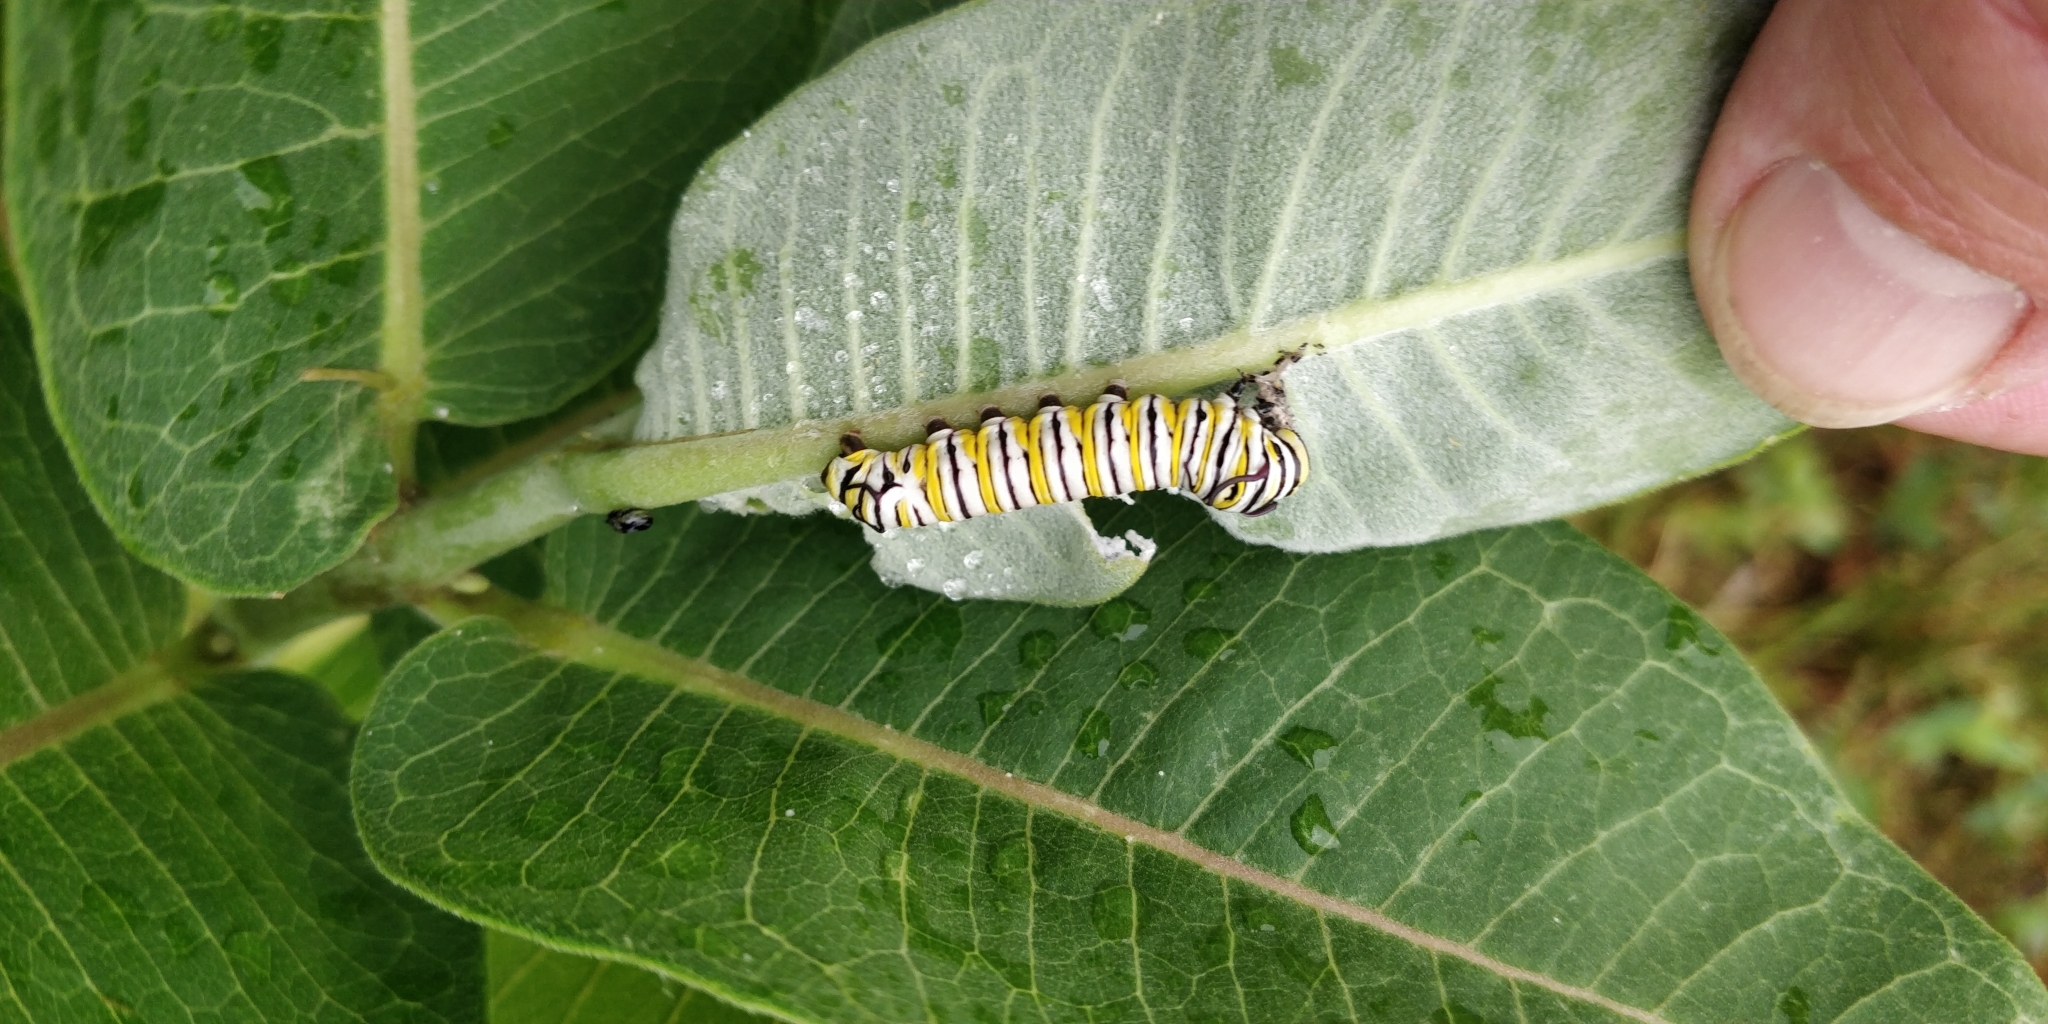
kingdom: Animalia
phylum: Arthropoda
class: Insecta
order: Lepidoptera
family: Nymphalidae
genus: Danaus
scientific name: Danaus plexippus
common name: Monarch
